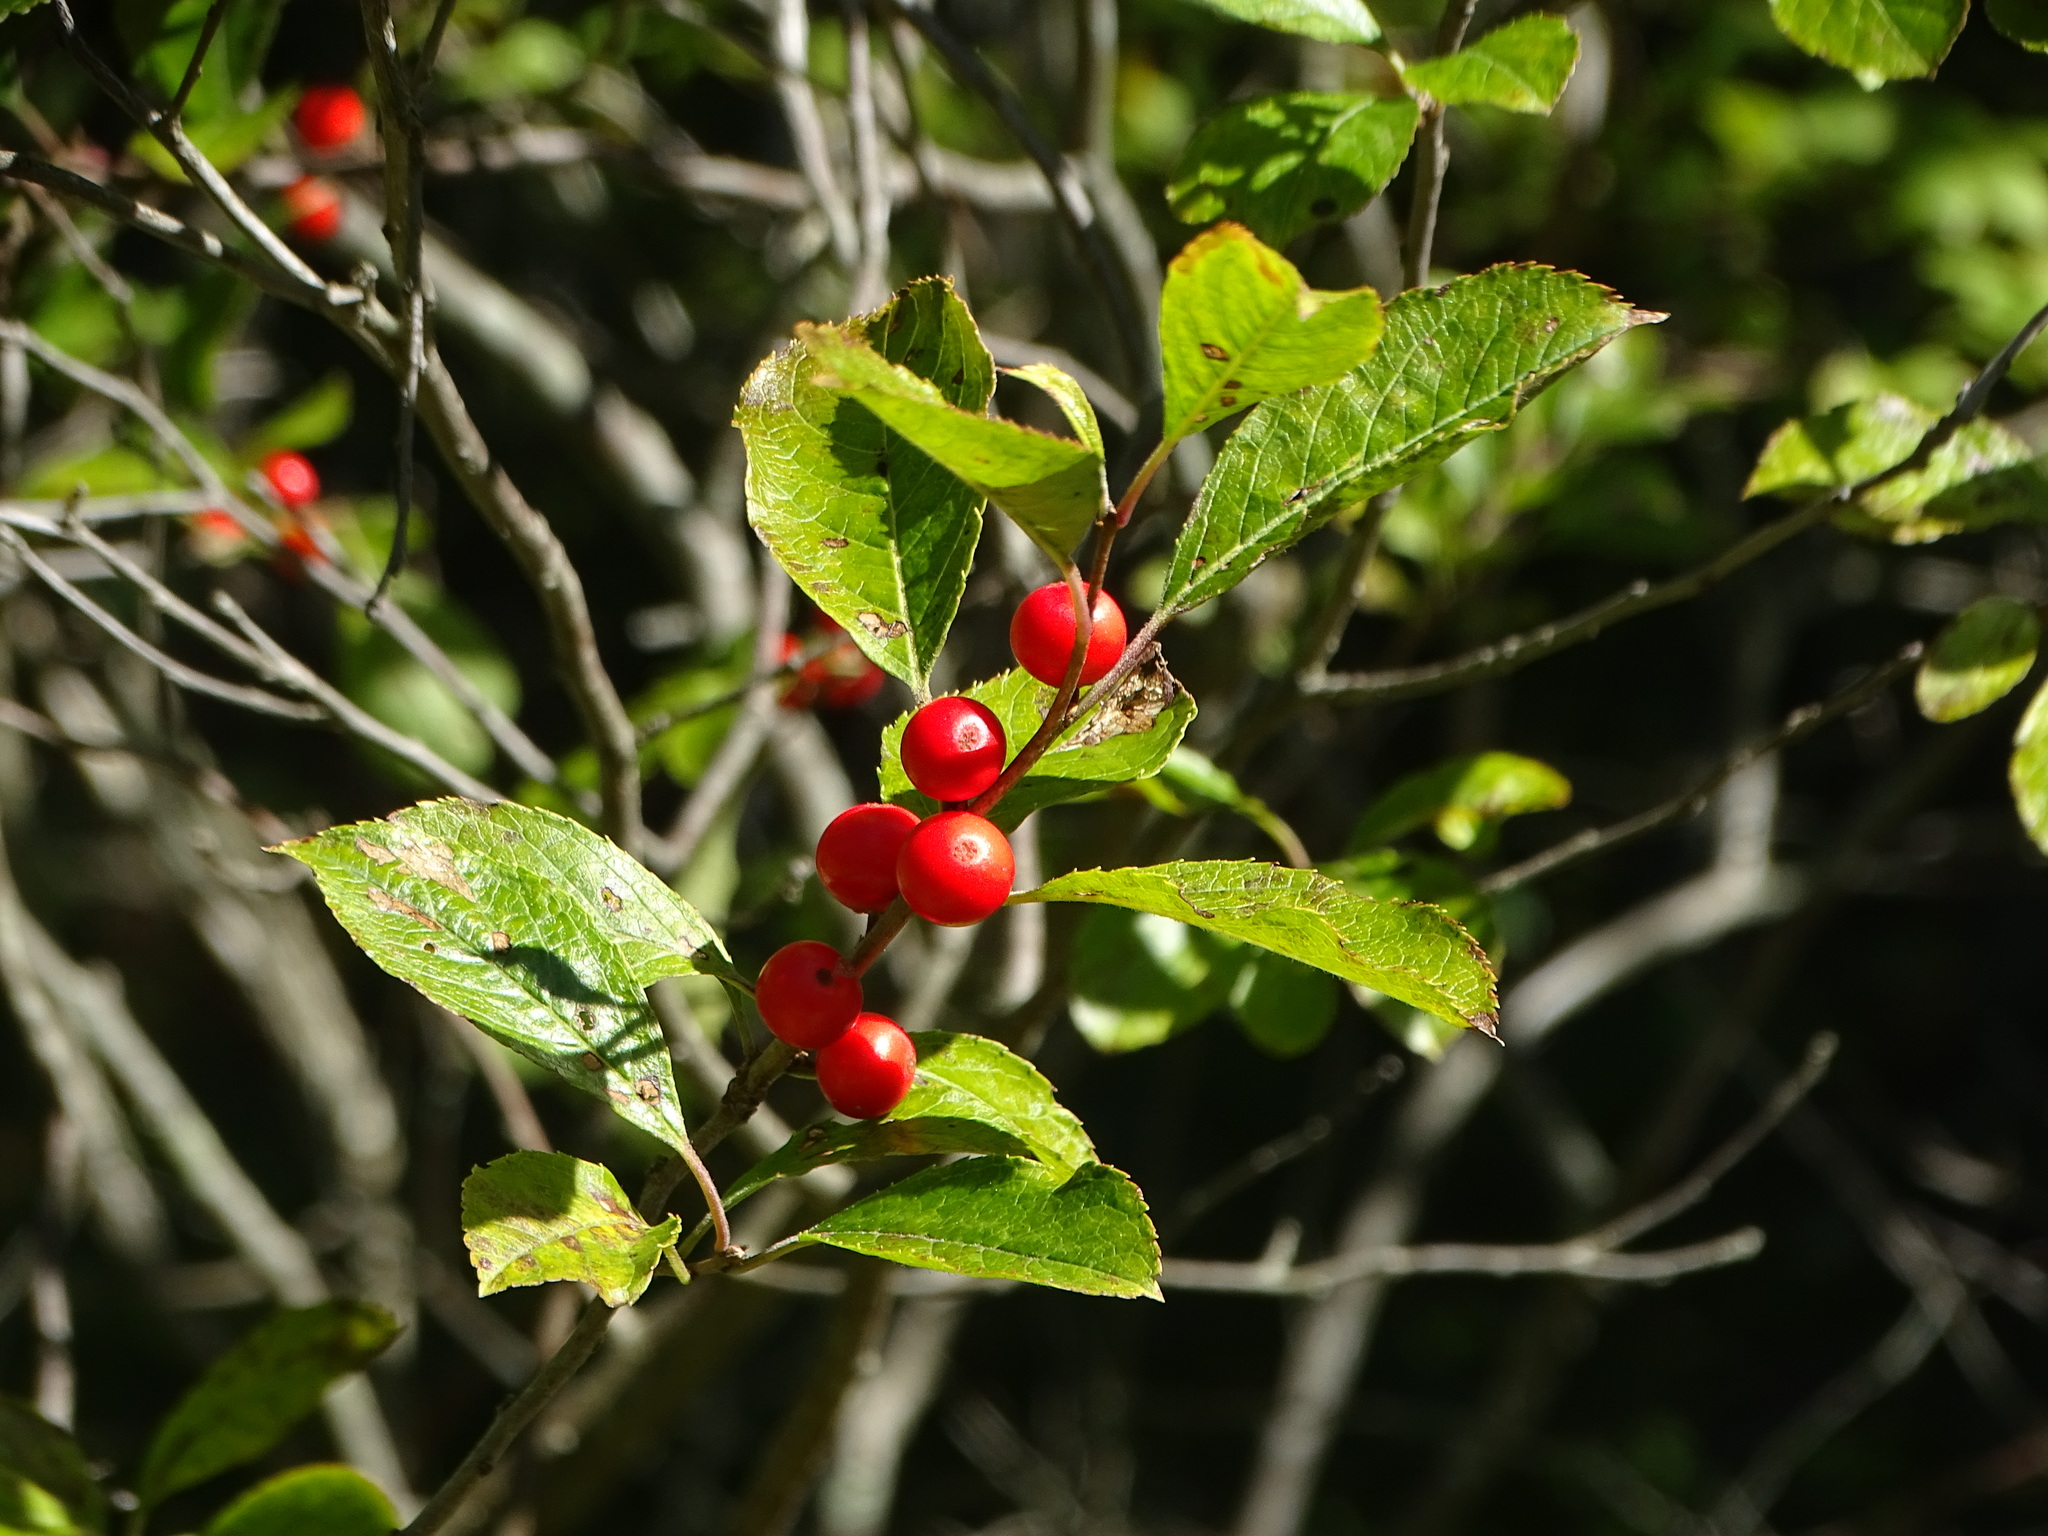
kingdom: Plantae
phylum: Tracheophyta
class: Magnoliopsida
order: Aquifoliales
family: Aquifoliaceae
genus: Ilex
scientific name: Ilex verticillata
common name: Virginia winterberry
